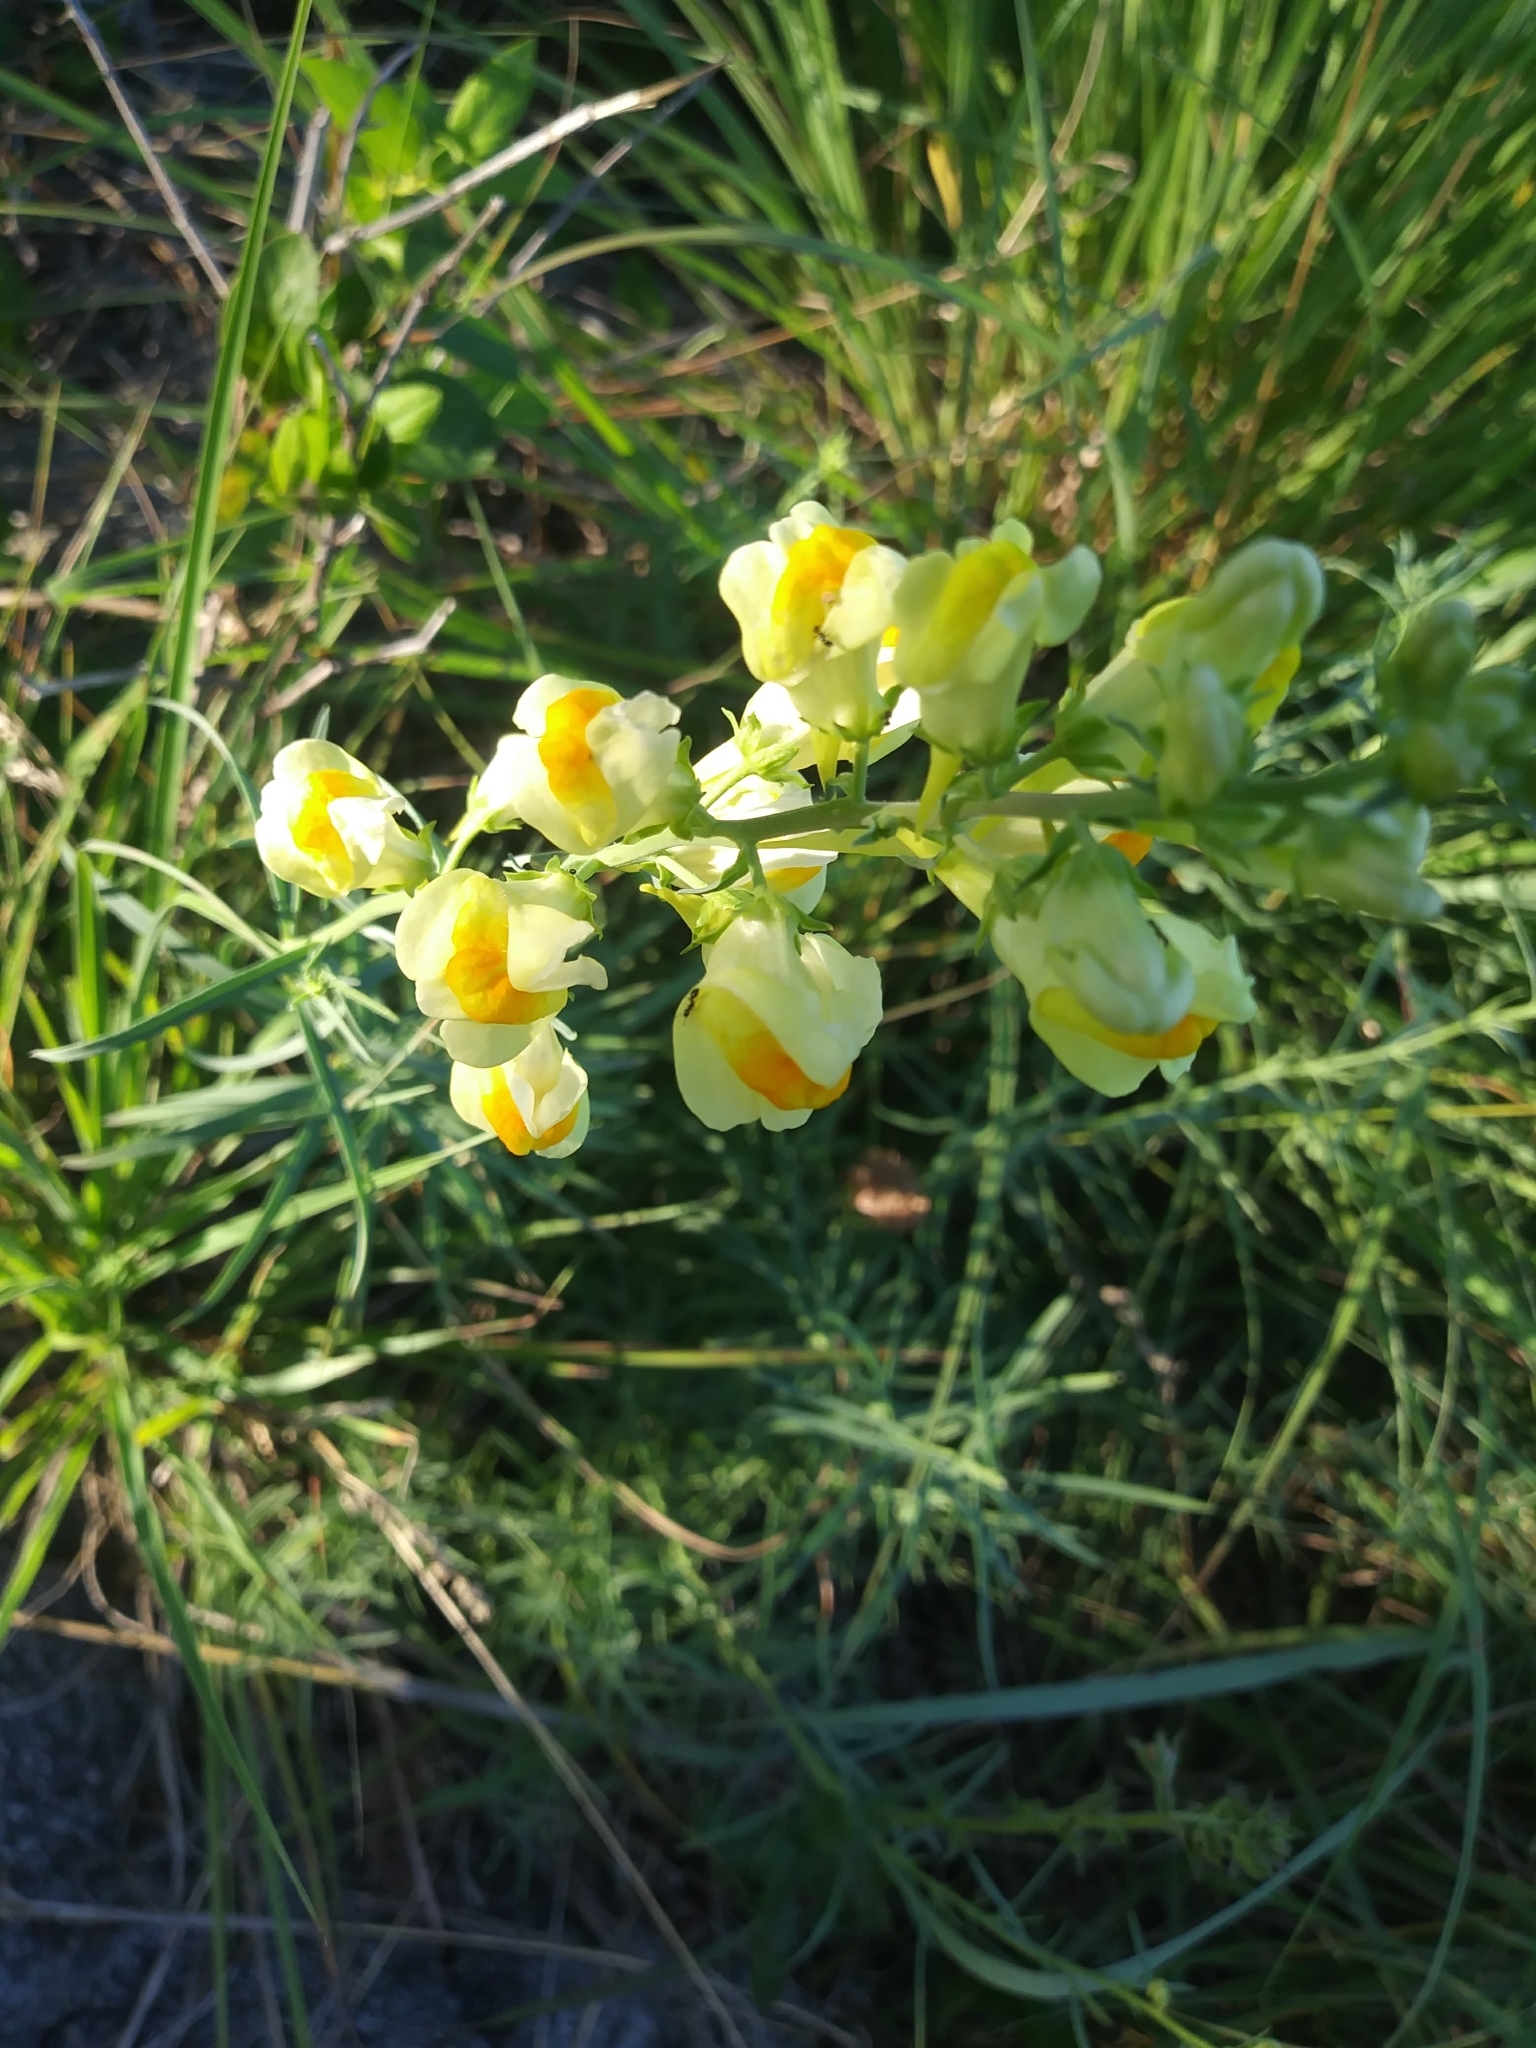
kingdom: Plantae
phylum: Tracheophyta
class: Magnoliopsida
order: Lamiales
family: Plantaginaceae
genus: Linaria
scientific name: Linaria vulgaris
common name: Butter and eggs
